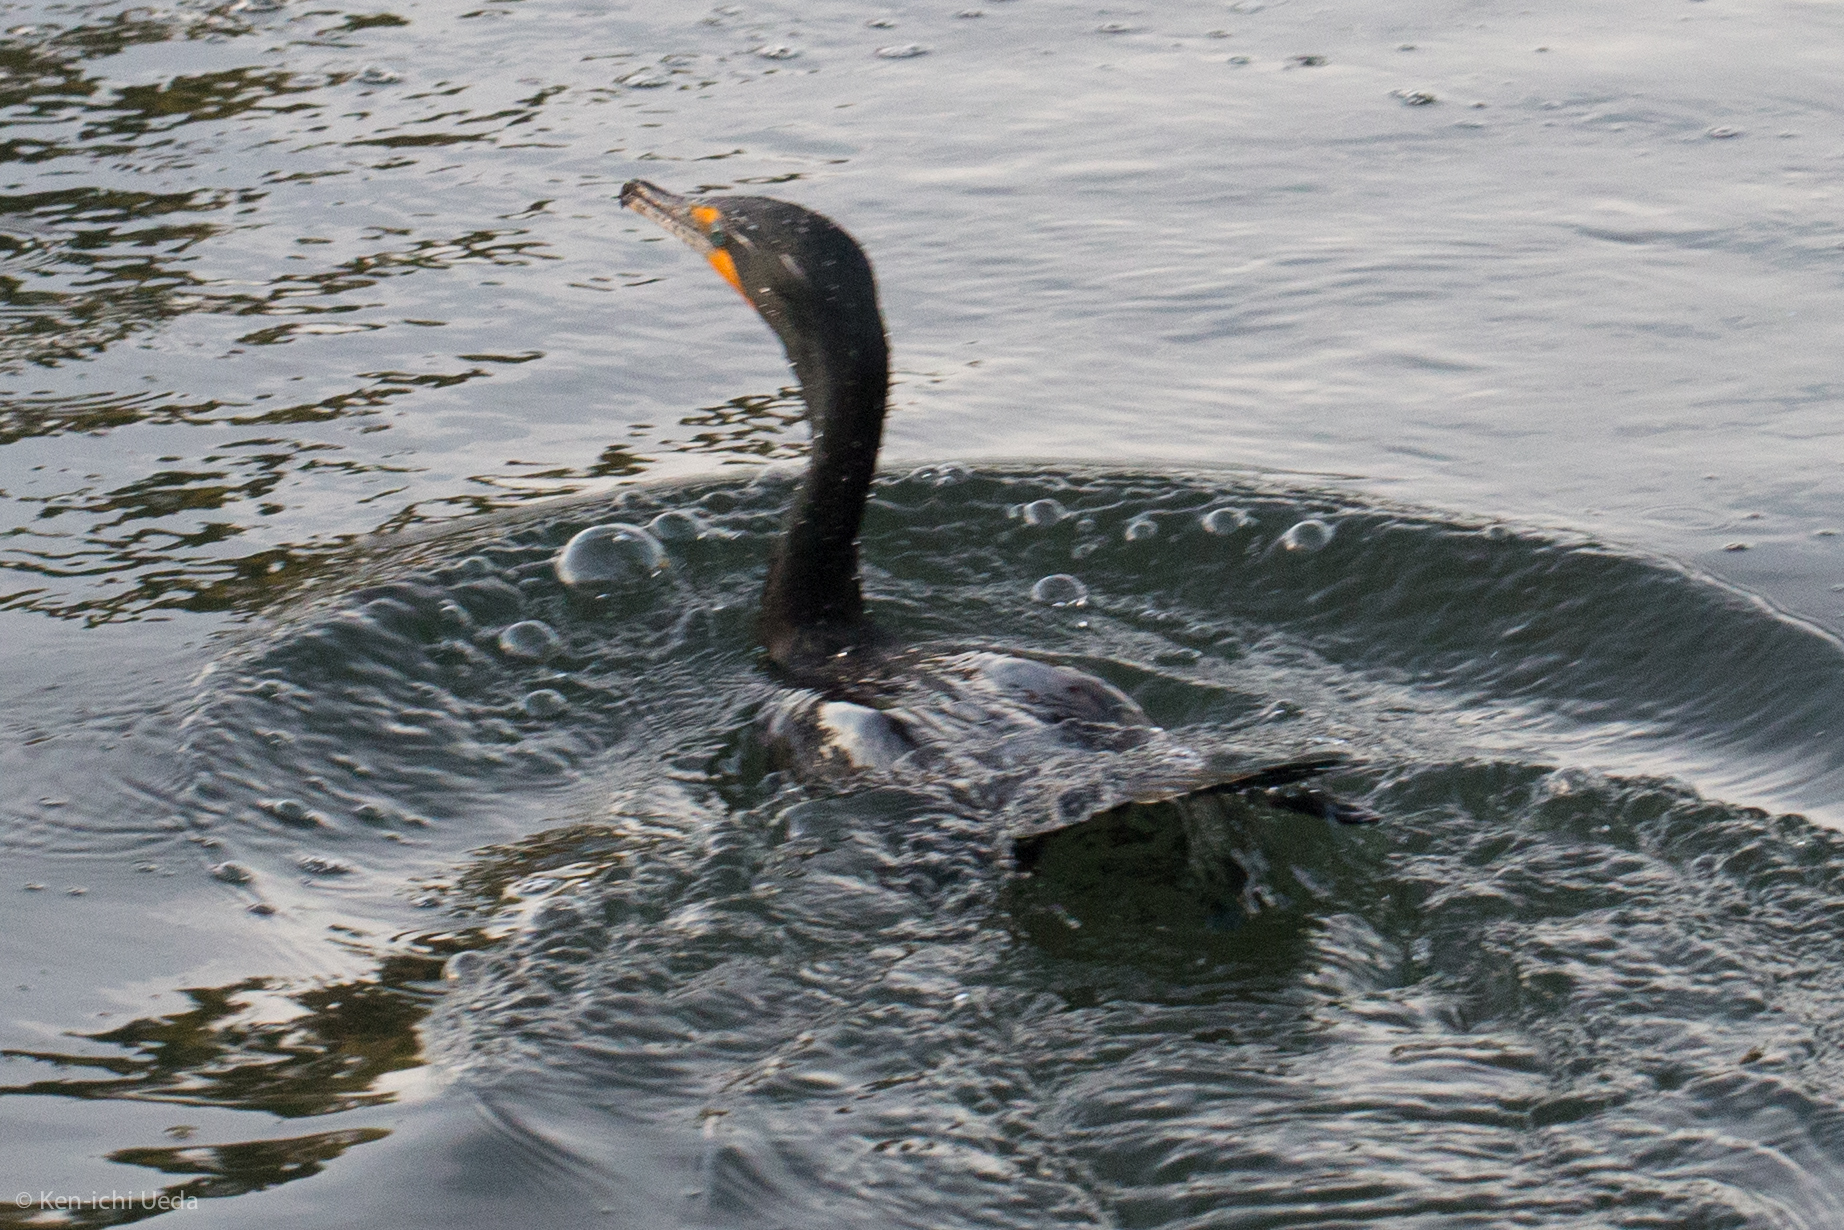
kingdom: Animalia
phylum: Chordata
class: Aves
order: Suliformes
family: Phalacrocoracidae
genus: Phalacrocorax
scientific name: Phalacrocorax auritus
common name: Double-crested cormorant
